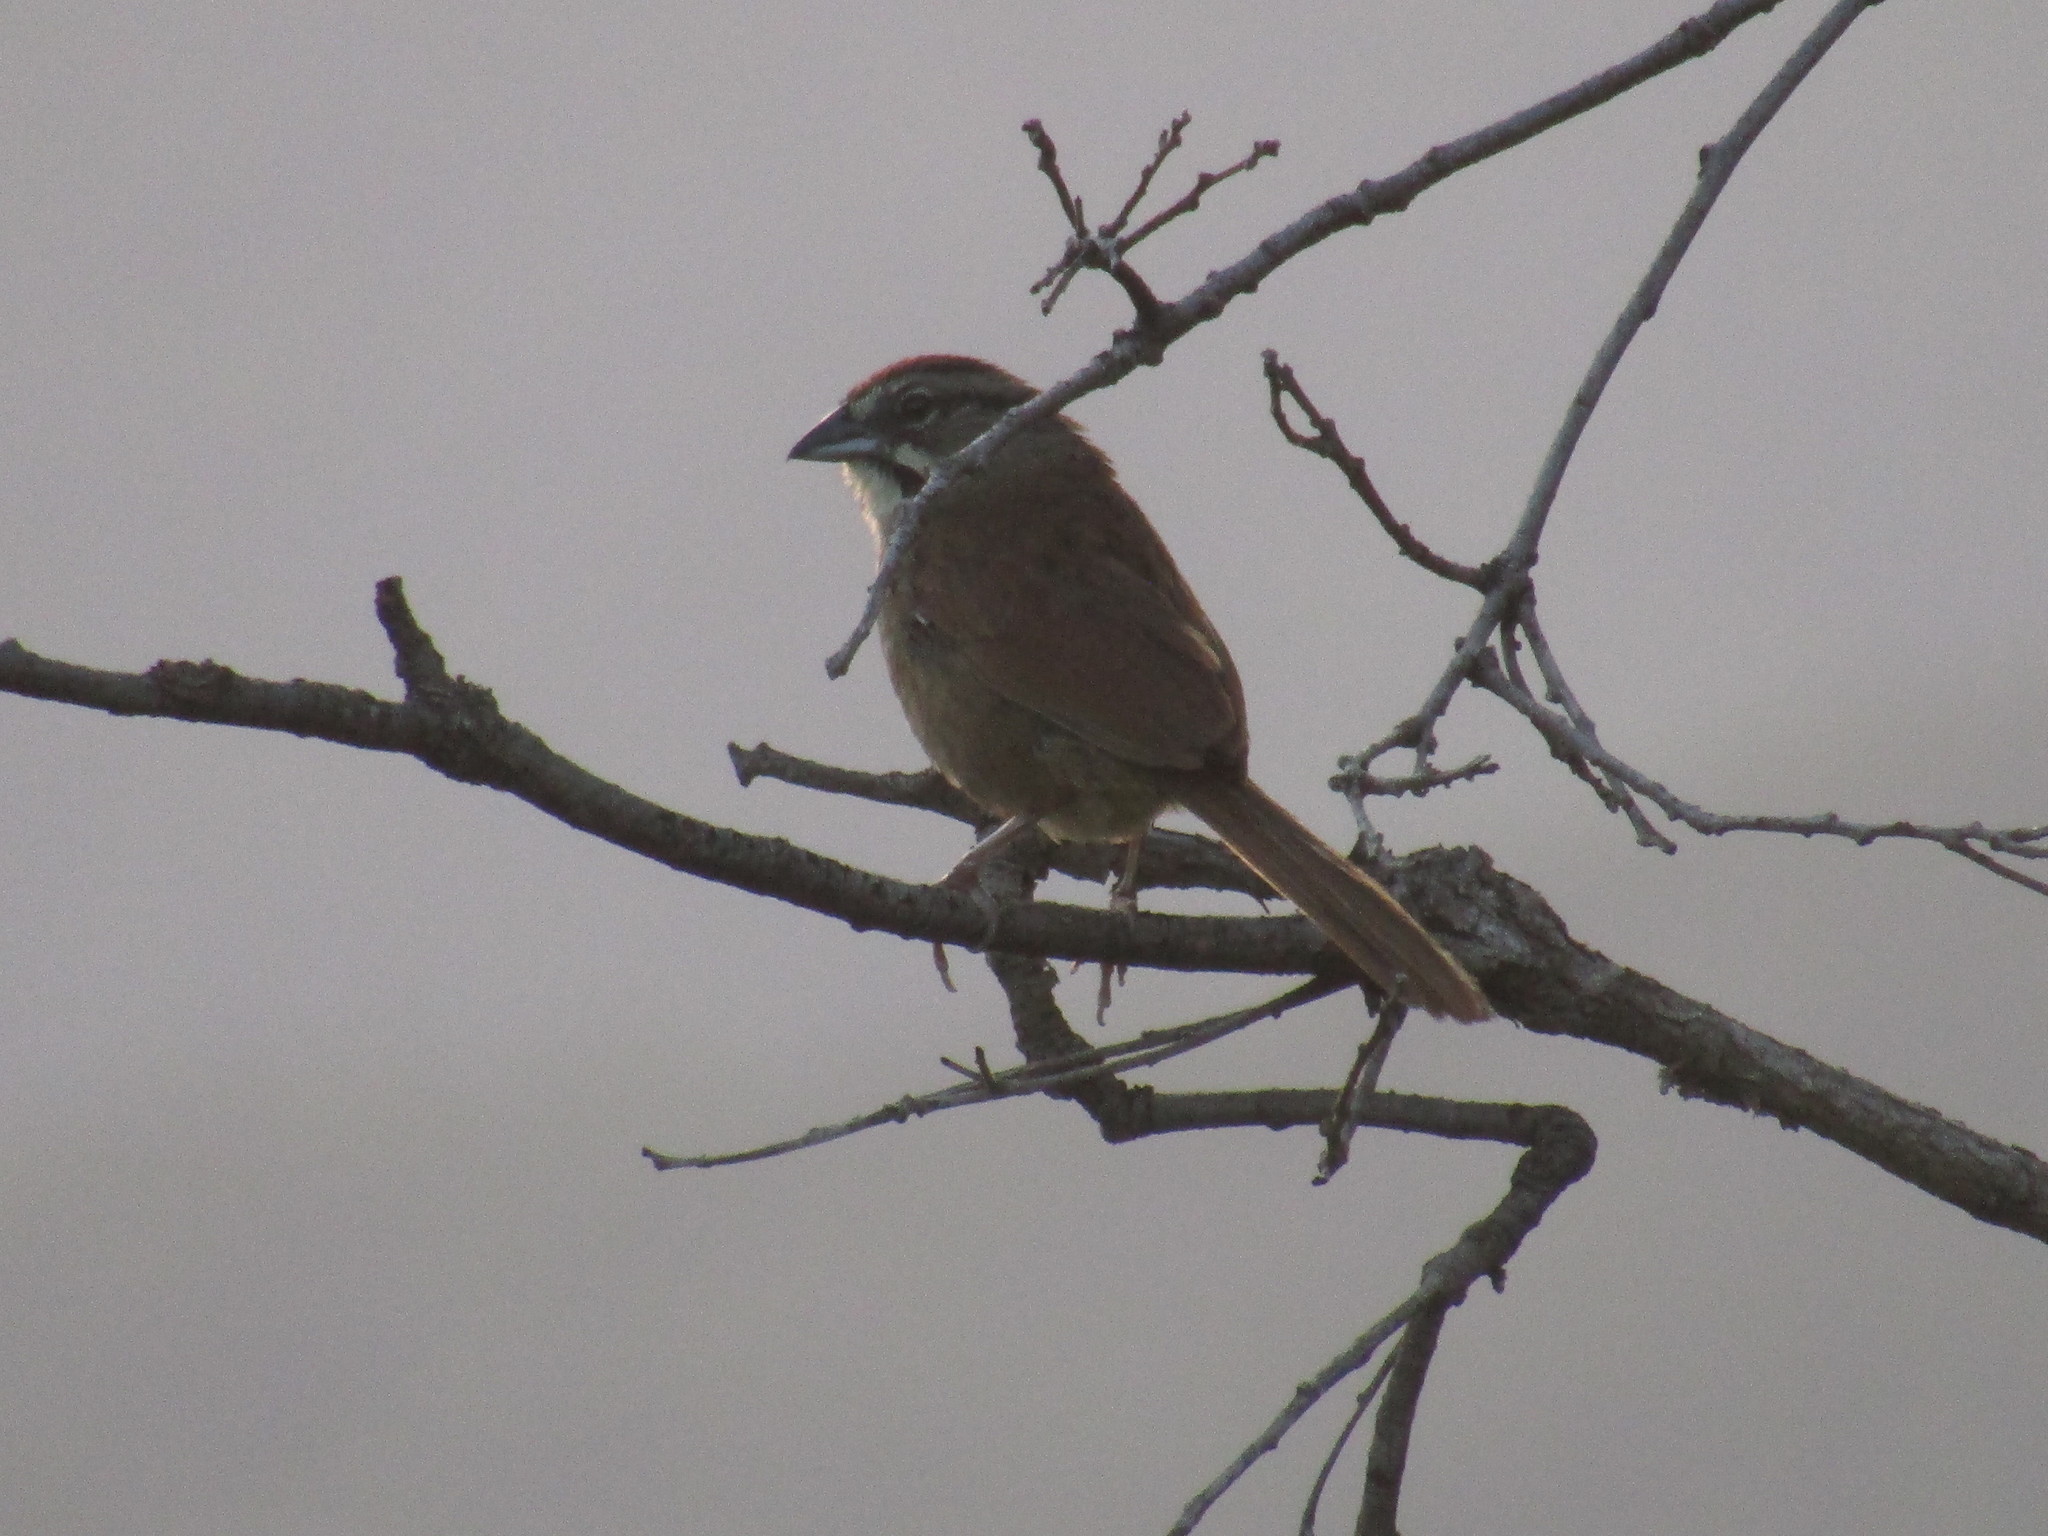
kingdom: Animalia
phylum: Chordata
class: Aves
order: Passeriformes
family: Passerellidae
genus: Aimophila
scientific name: Aimophila rufescens
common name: Rusty sparrow
